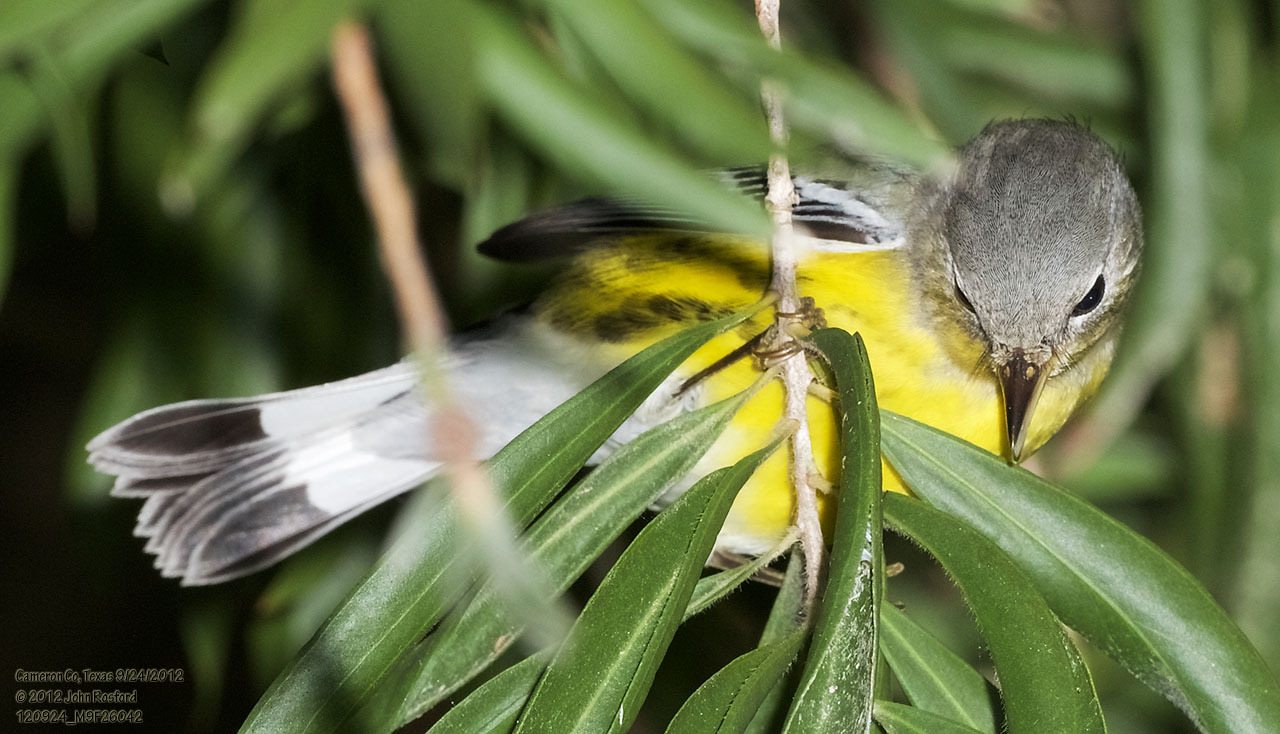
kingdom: Animalia
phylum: Chordata
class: Aves
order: Passeriformes
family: Parulidae
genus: Setophaga
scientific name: Setophaga magnolia
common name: Magnolia warbler
